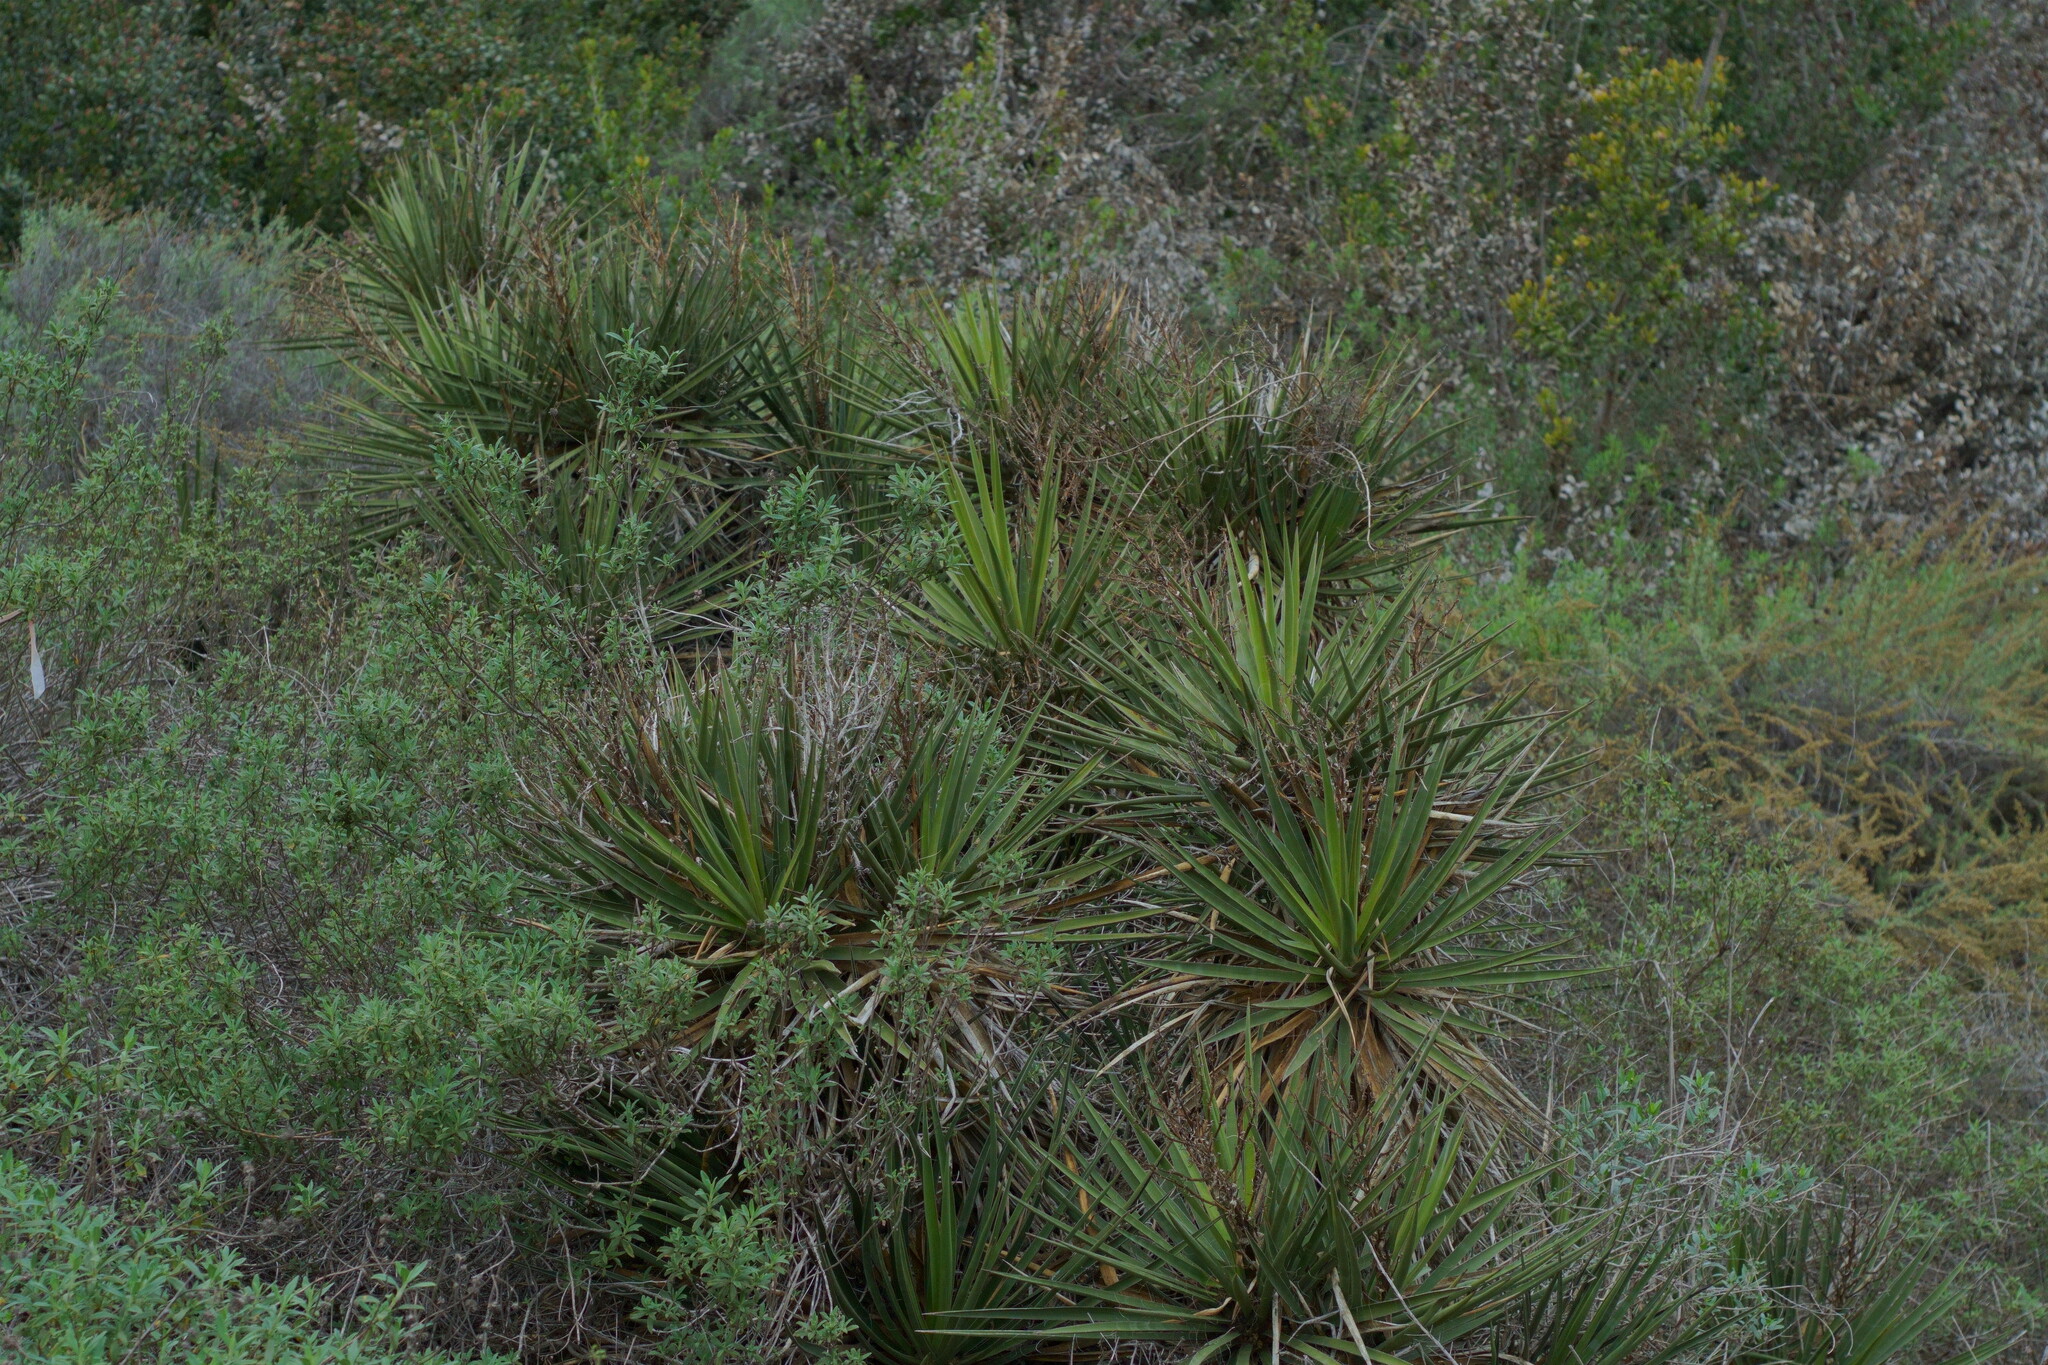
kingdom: Plantae
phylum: Tracheophyta
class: Liliopsida
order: Asparagales
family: Asparagaceae
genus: Yucca
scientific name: Yucca schidigera
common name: Mojave yucca
